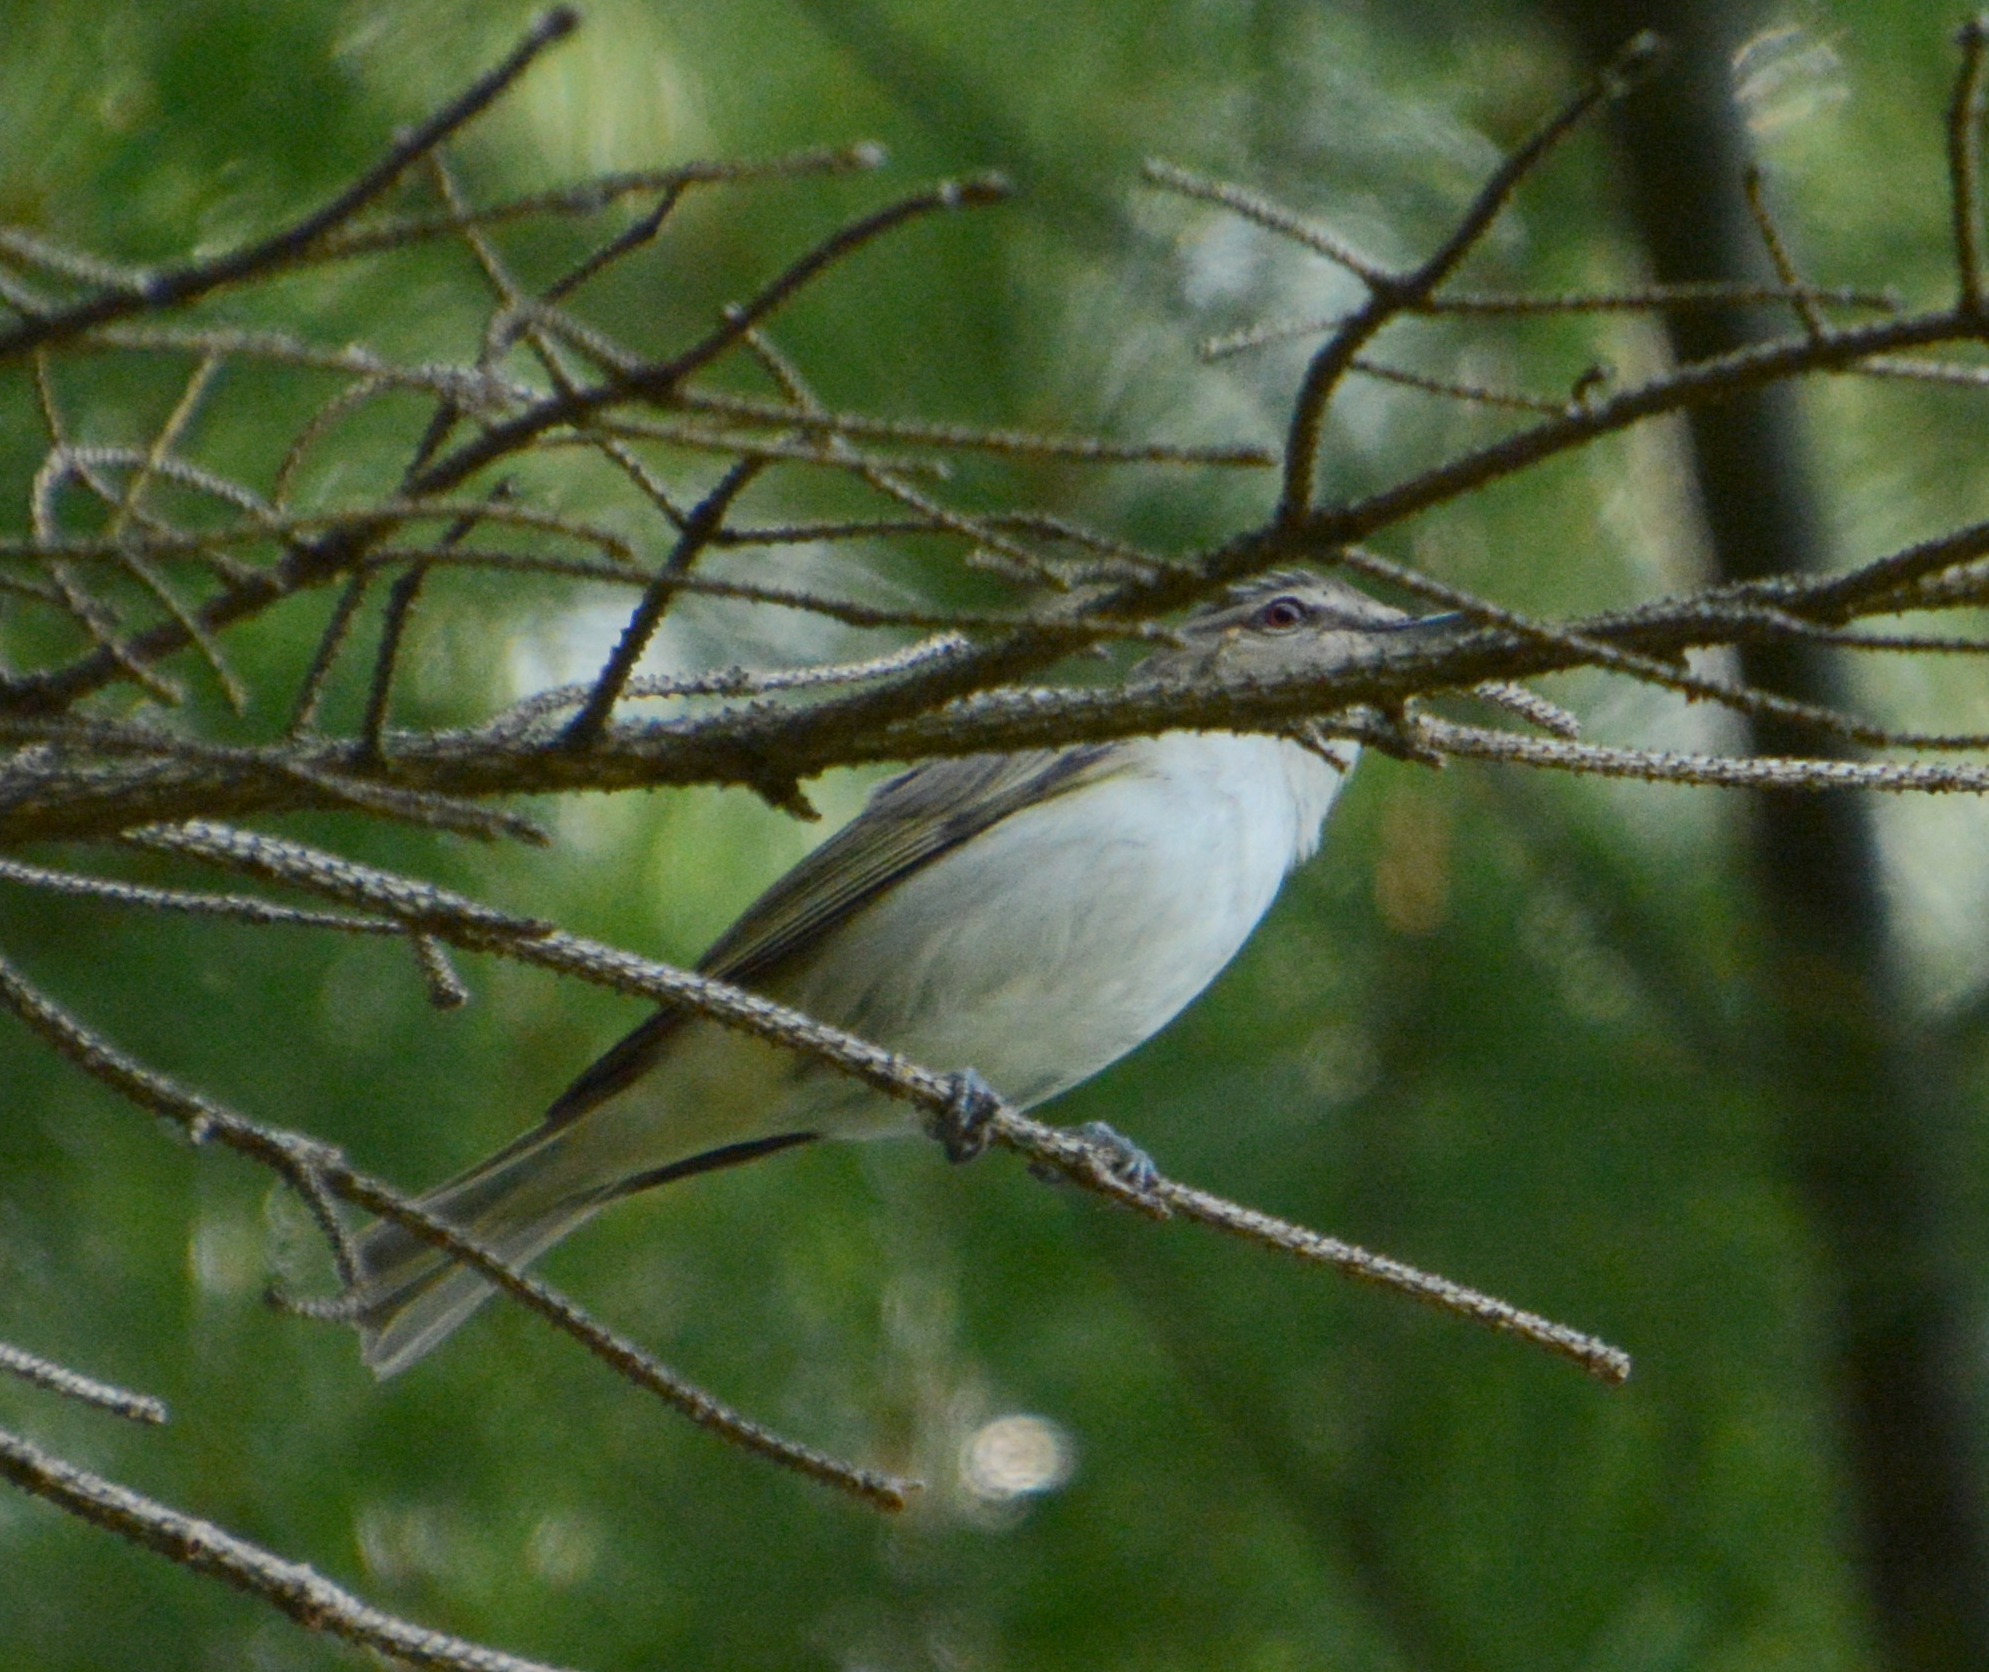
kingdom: Animalia
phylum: Chordata
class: Aves
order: Passeriformes
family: Vireonidae
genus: Vireo
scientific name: Vireo olivaceus
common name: Red-eyed vireo
